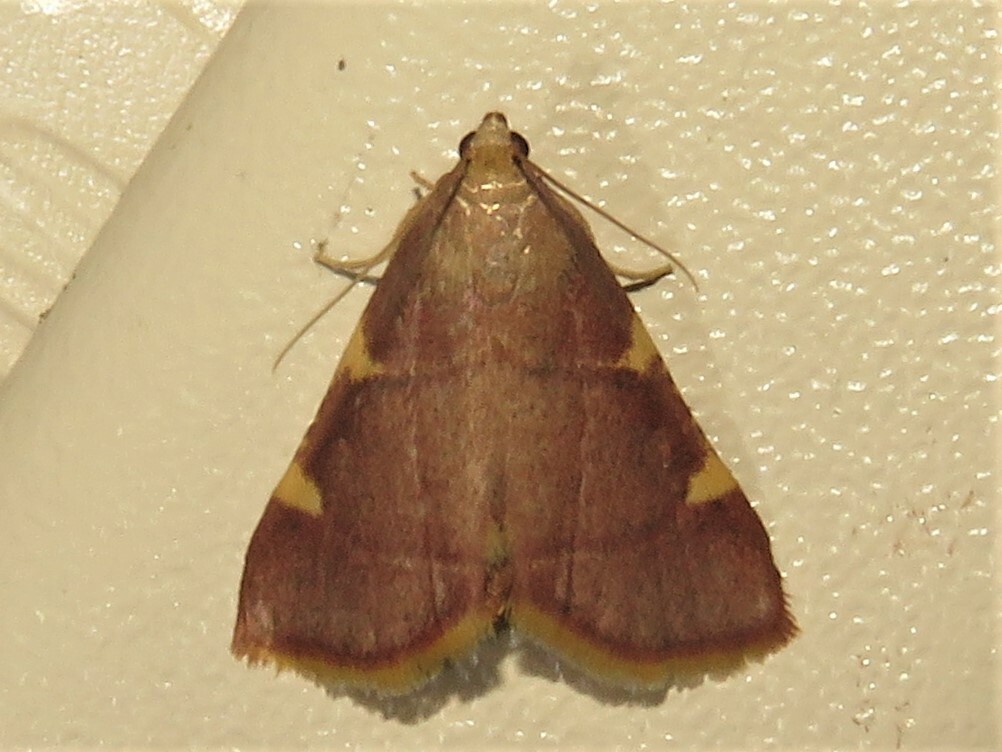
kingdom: Animalia
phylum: Arthropoda
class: Insecta
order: Lepidoptera
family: Pyralidae
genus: Hypsopygia
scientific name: Hypsopygia olinalis
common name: Yellow-fringed dolichomia moth
